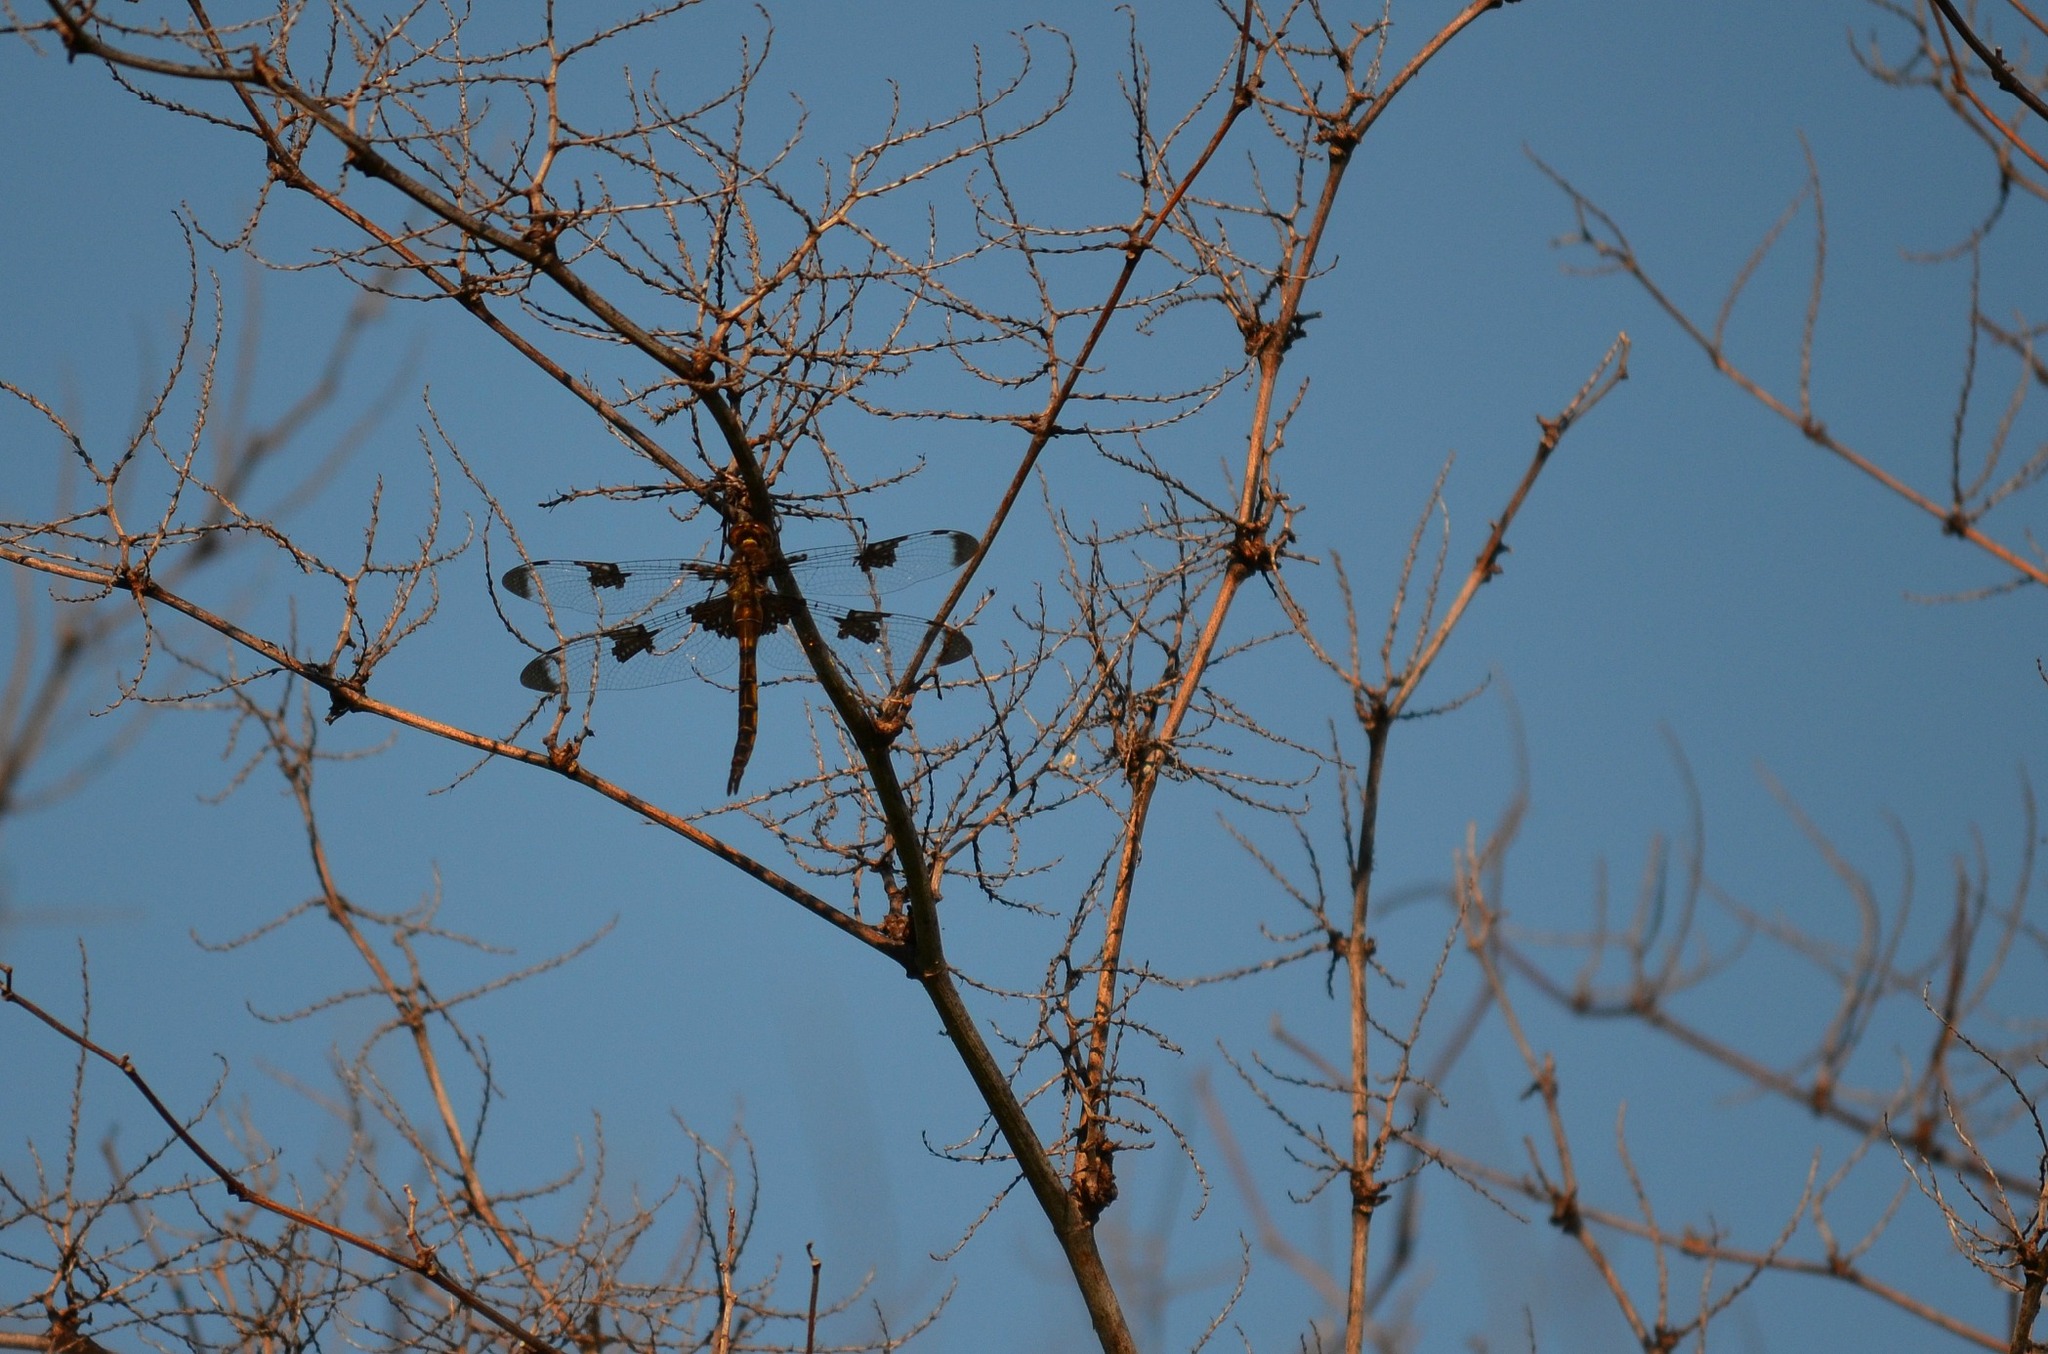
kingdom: Animalia
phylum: Arthropoda
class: Insecta
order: Odonata
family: Corduliidae
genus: Epitheca
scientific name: Epitheca princeps
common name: Prince baskettail
